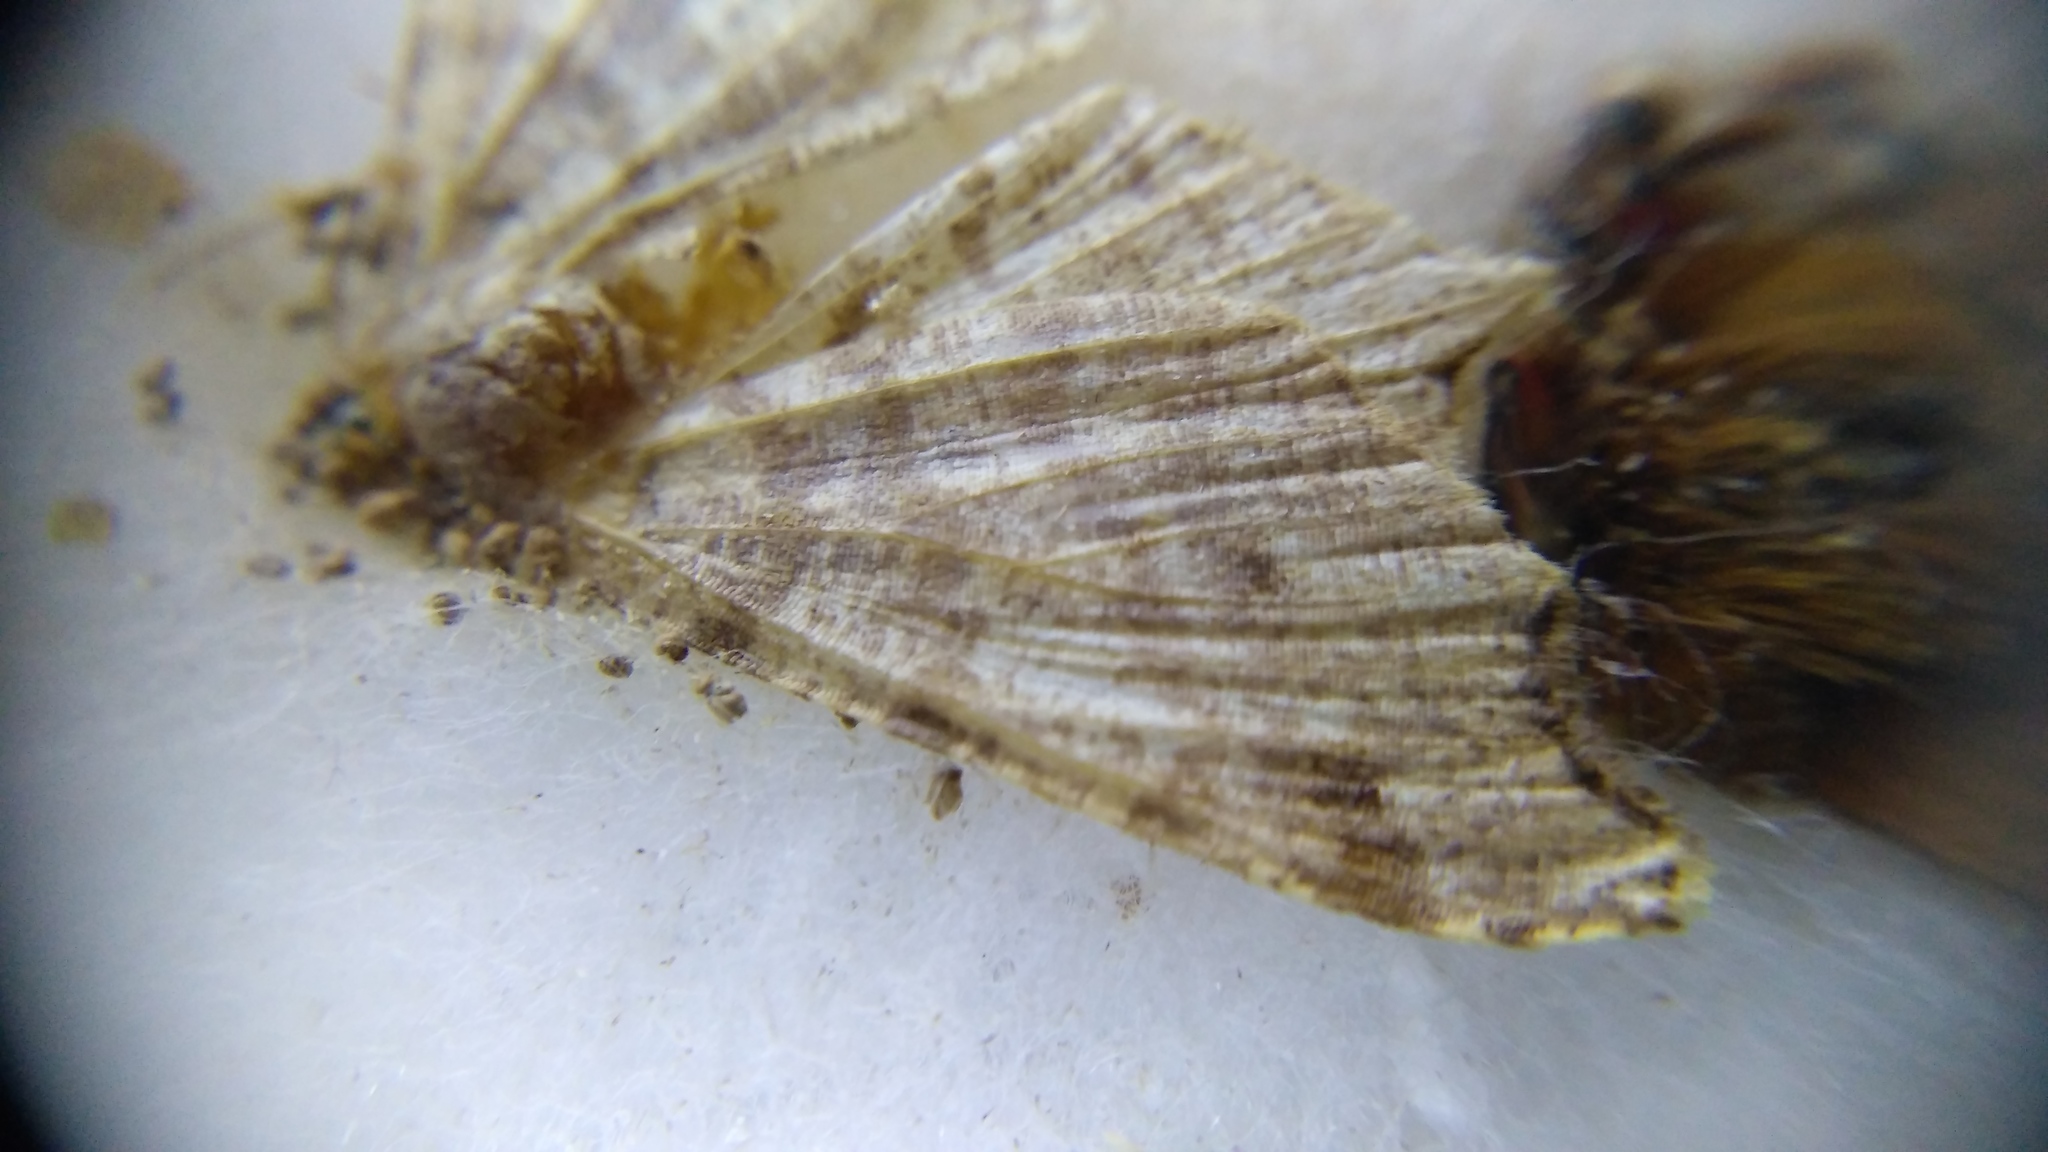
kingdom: Animalia
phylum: Arthropoda
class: Insecta
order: Lepidoptera
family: Geometridae
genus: Macaria
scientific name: Macaria alternata
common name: Sharp-angled peacock
